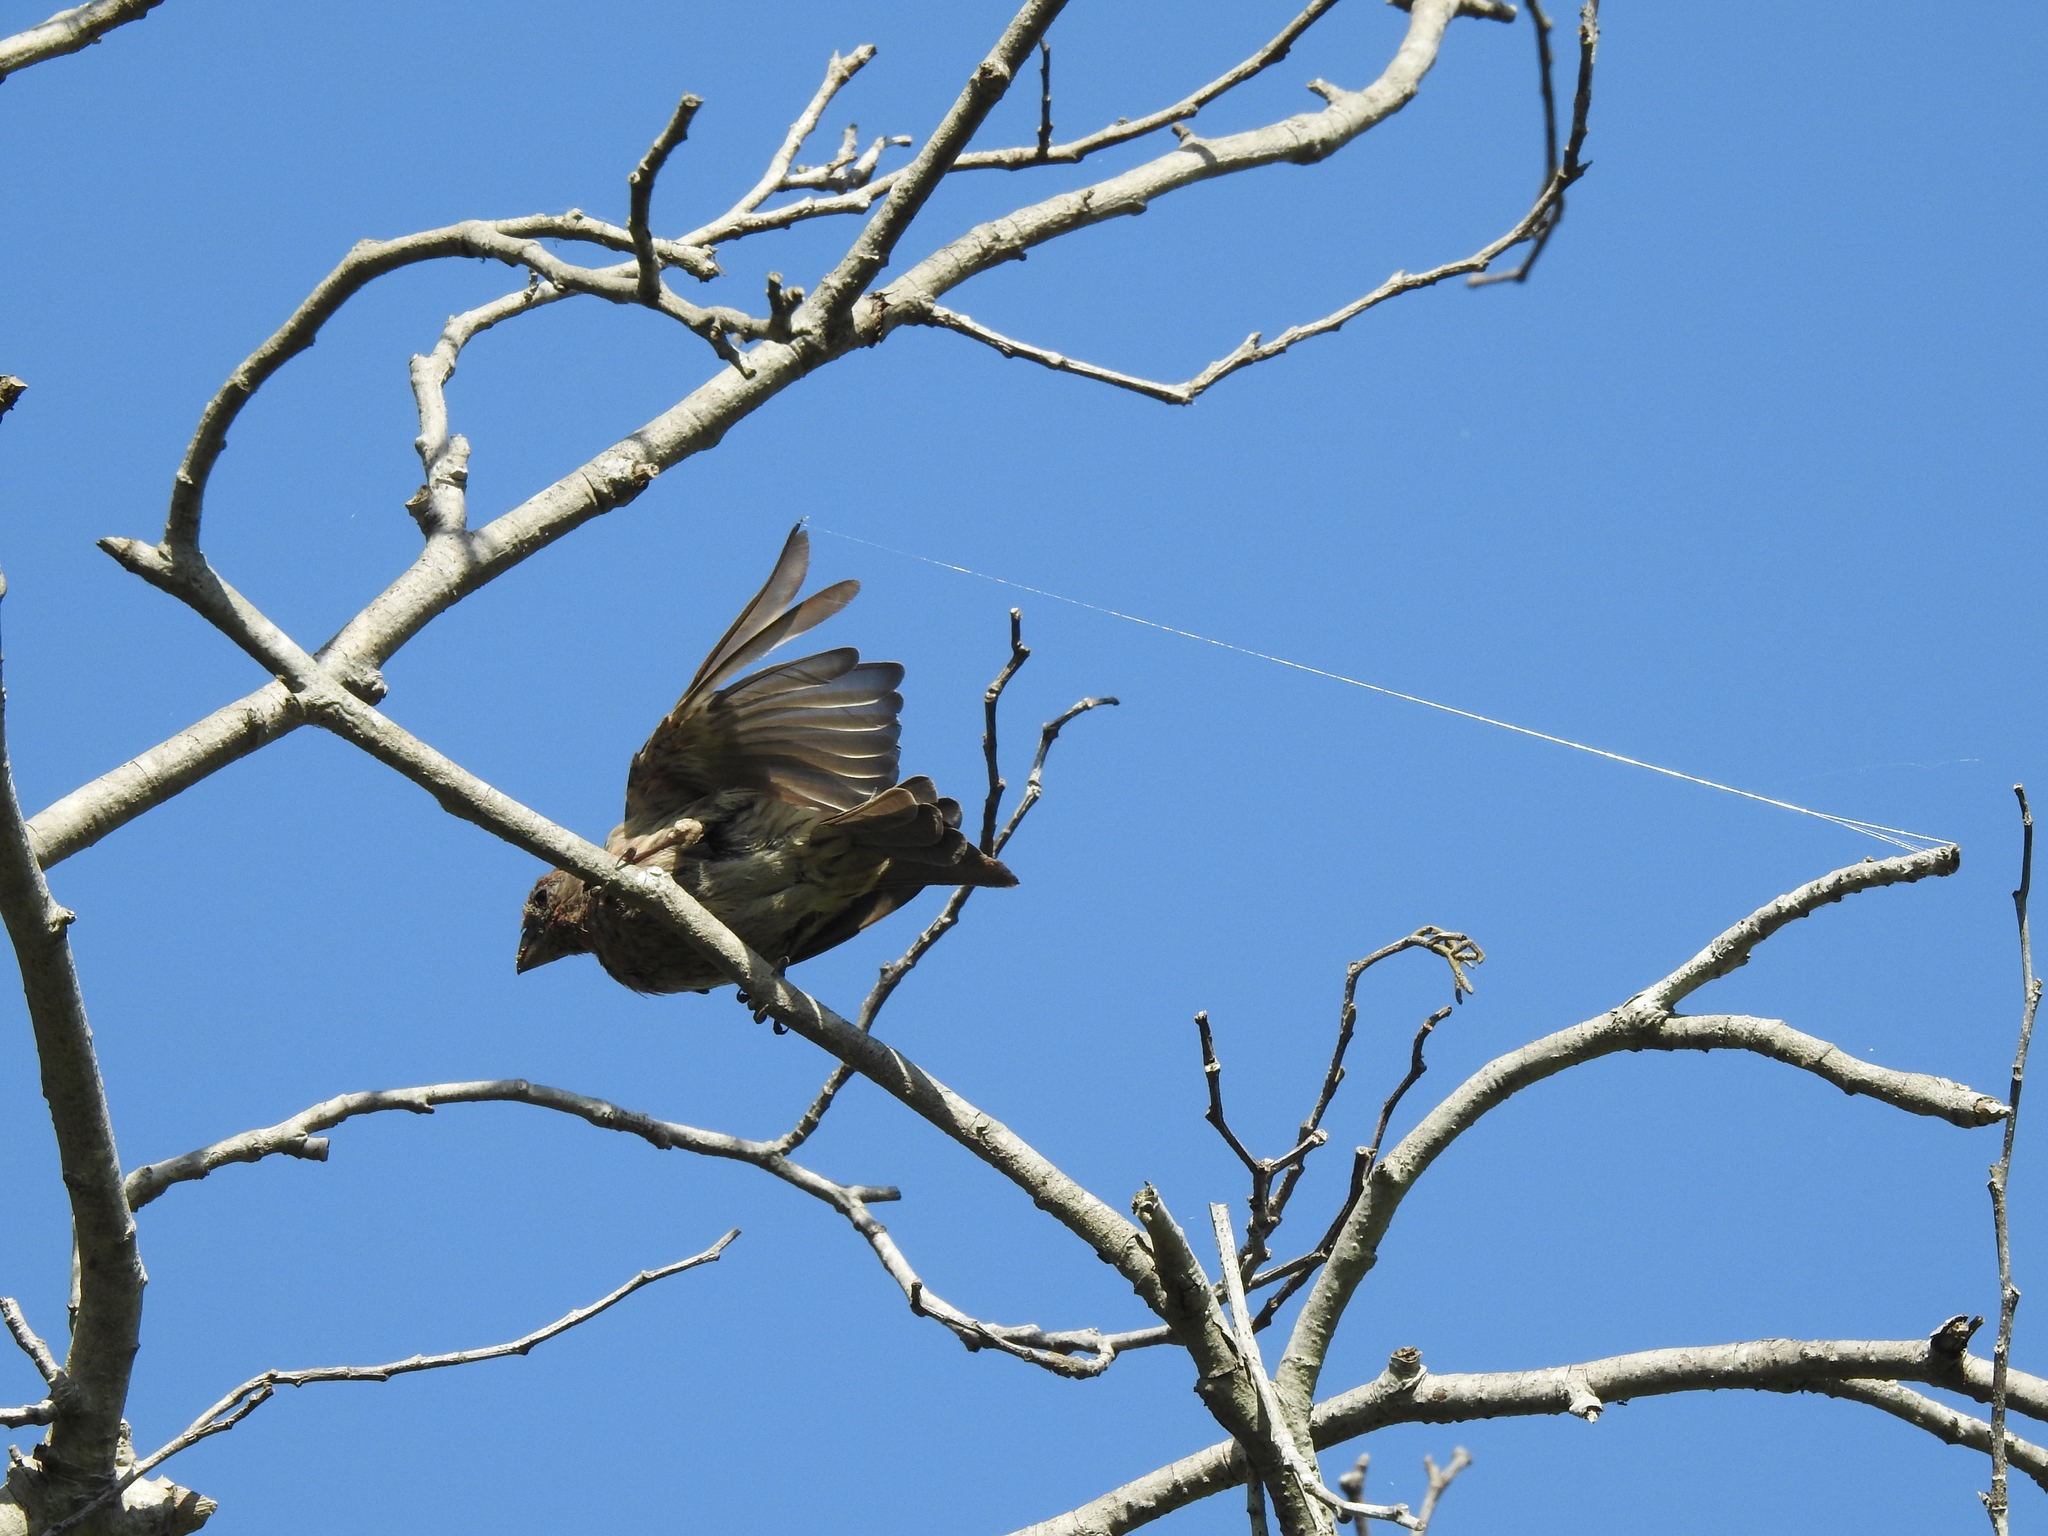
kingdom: Animalia
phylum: Chordata
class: Aves
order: Passeriformes
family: Fringillidae
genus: Haemorhous
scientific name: Haemorhous mexicanus
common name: House finch
